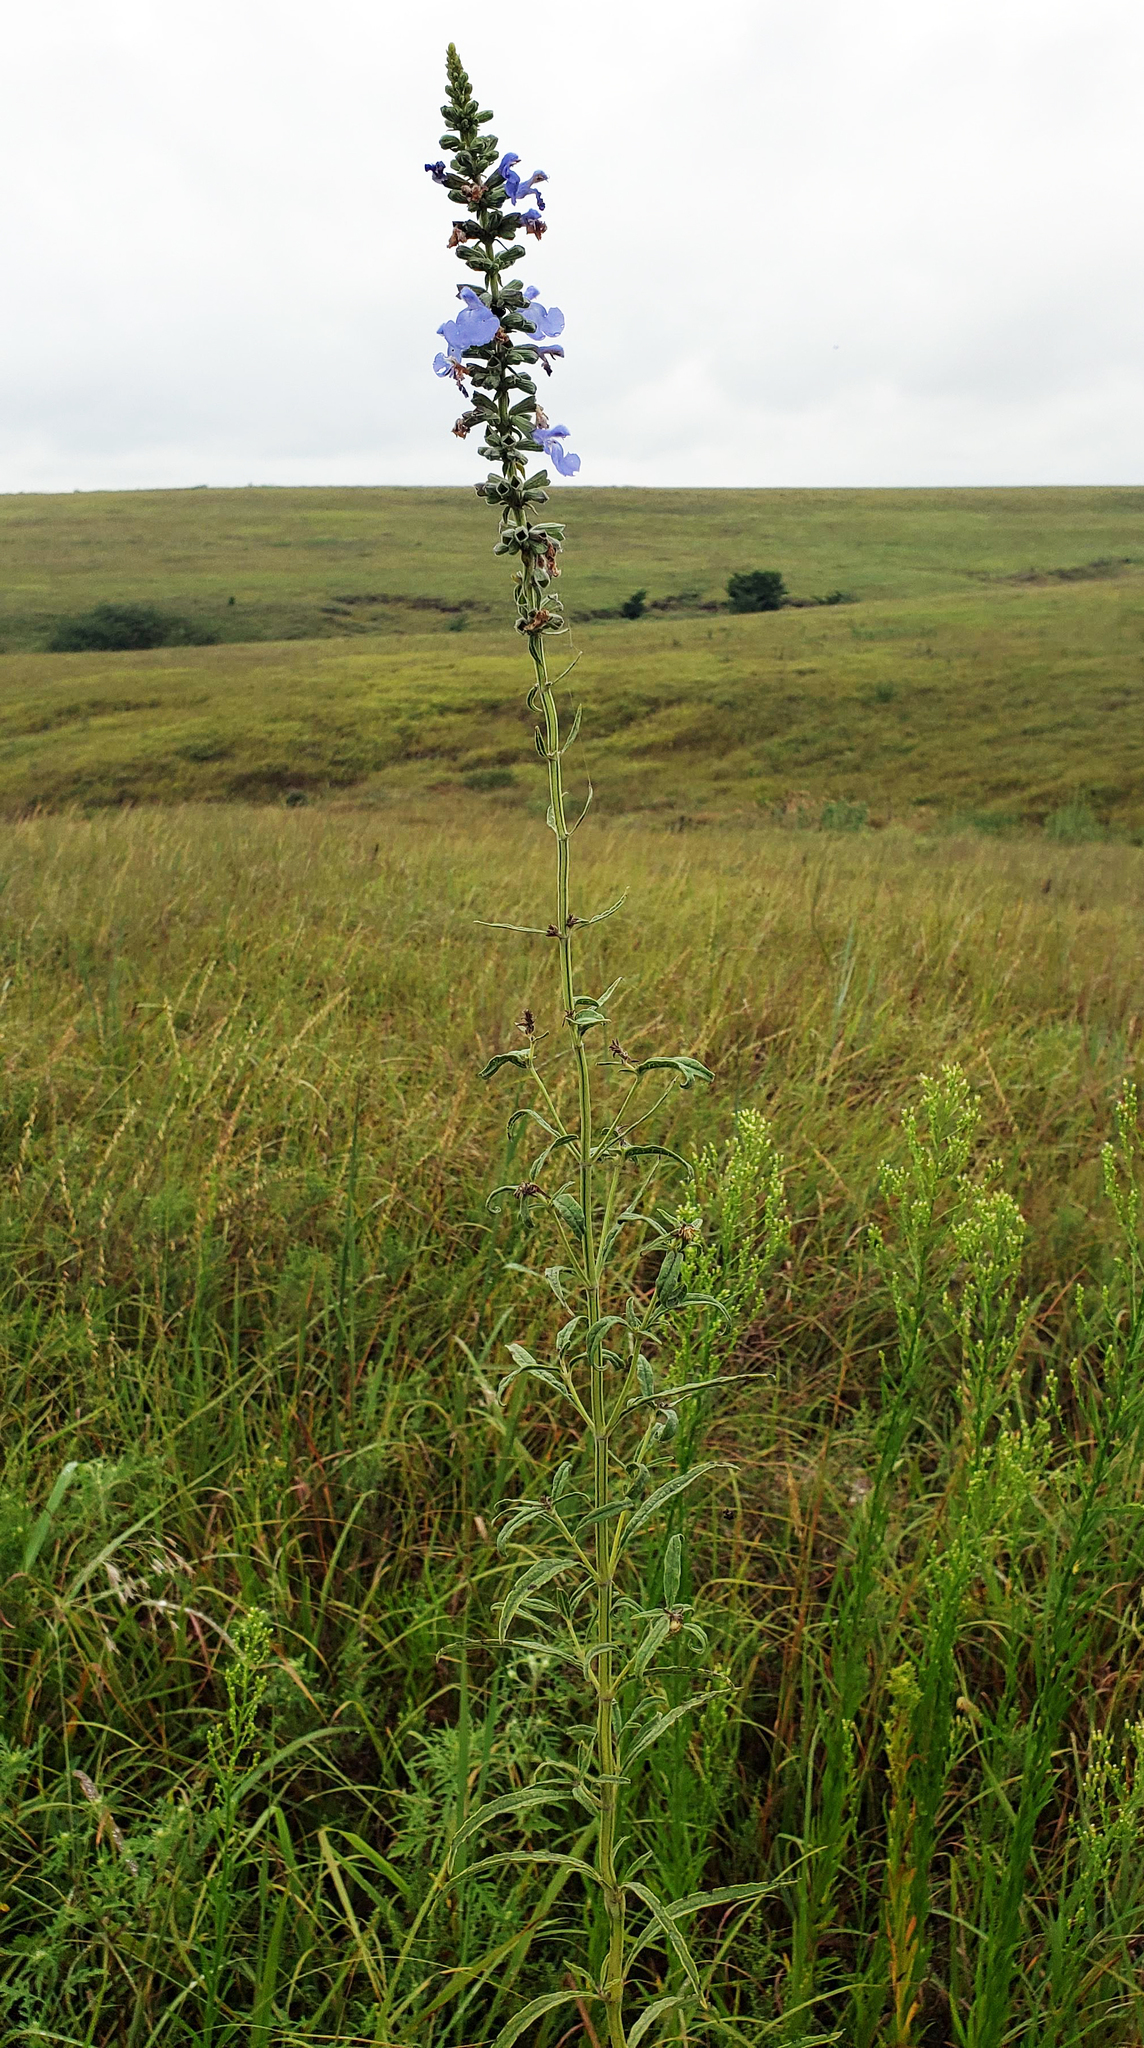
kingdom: Plantae
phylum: Tracheophyta
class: Magnoliopsida
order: Lamiales
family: Lamiaceae
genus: Salvia
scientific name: Salvia azurea
